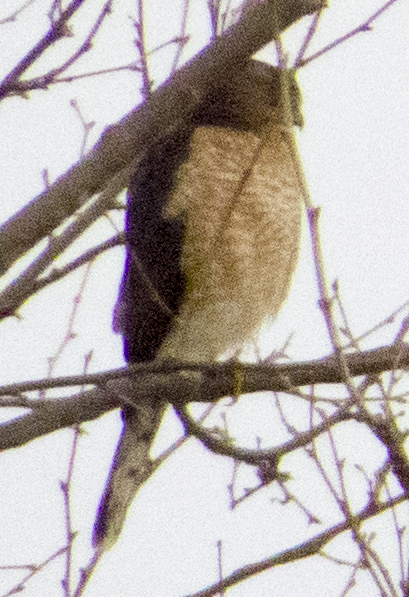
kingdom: Animalia
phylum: Chordata
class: Aves
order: Accipitriformes
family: Accipitridae
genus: Accipiter
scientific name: Accipiter cooperii
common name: Cooper's hawk
